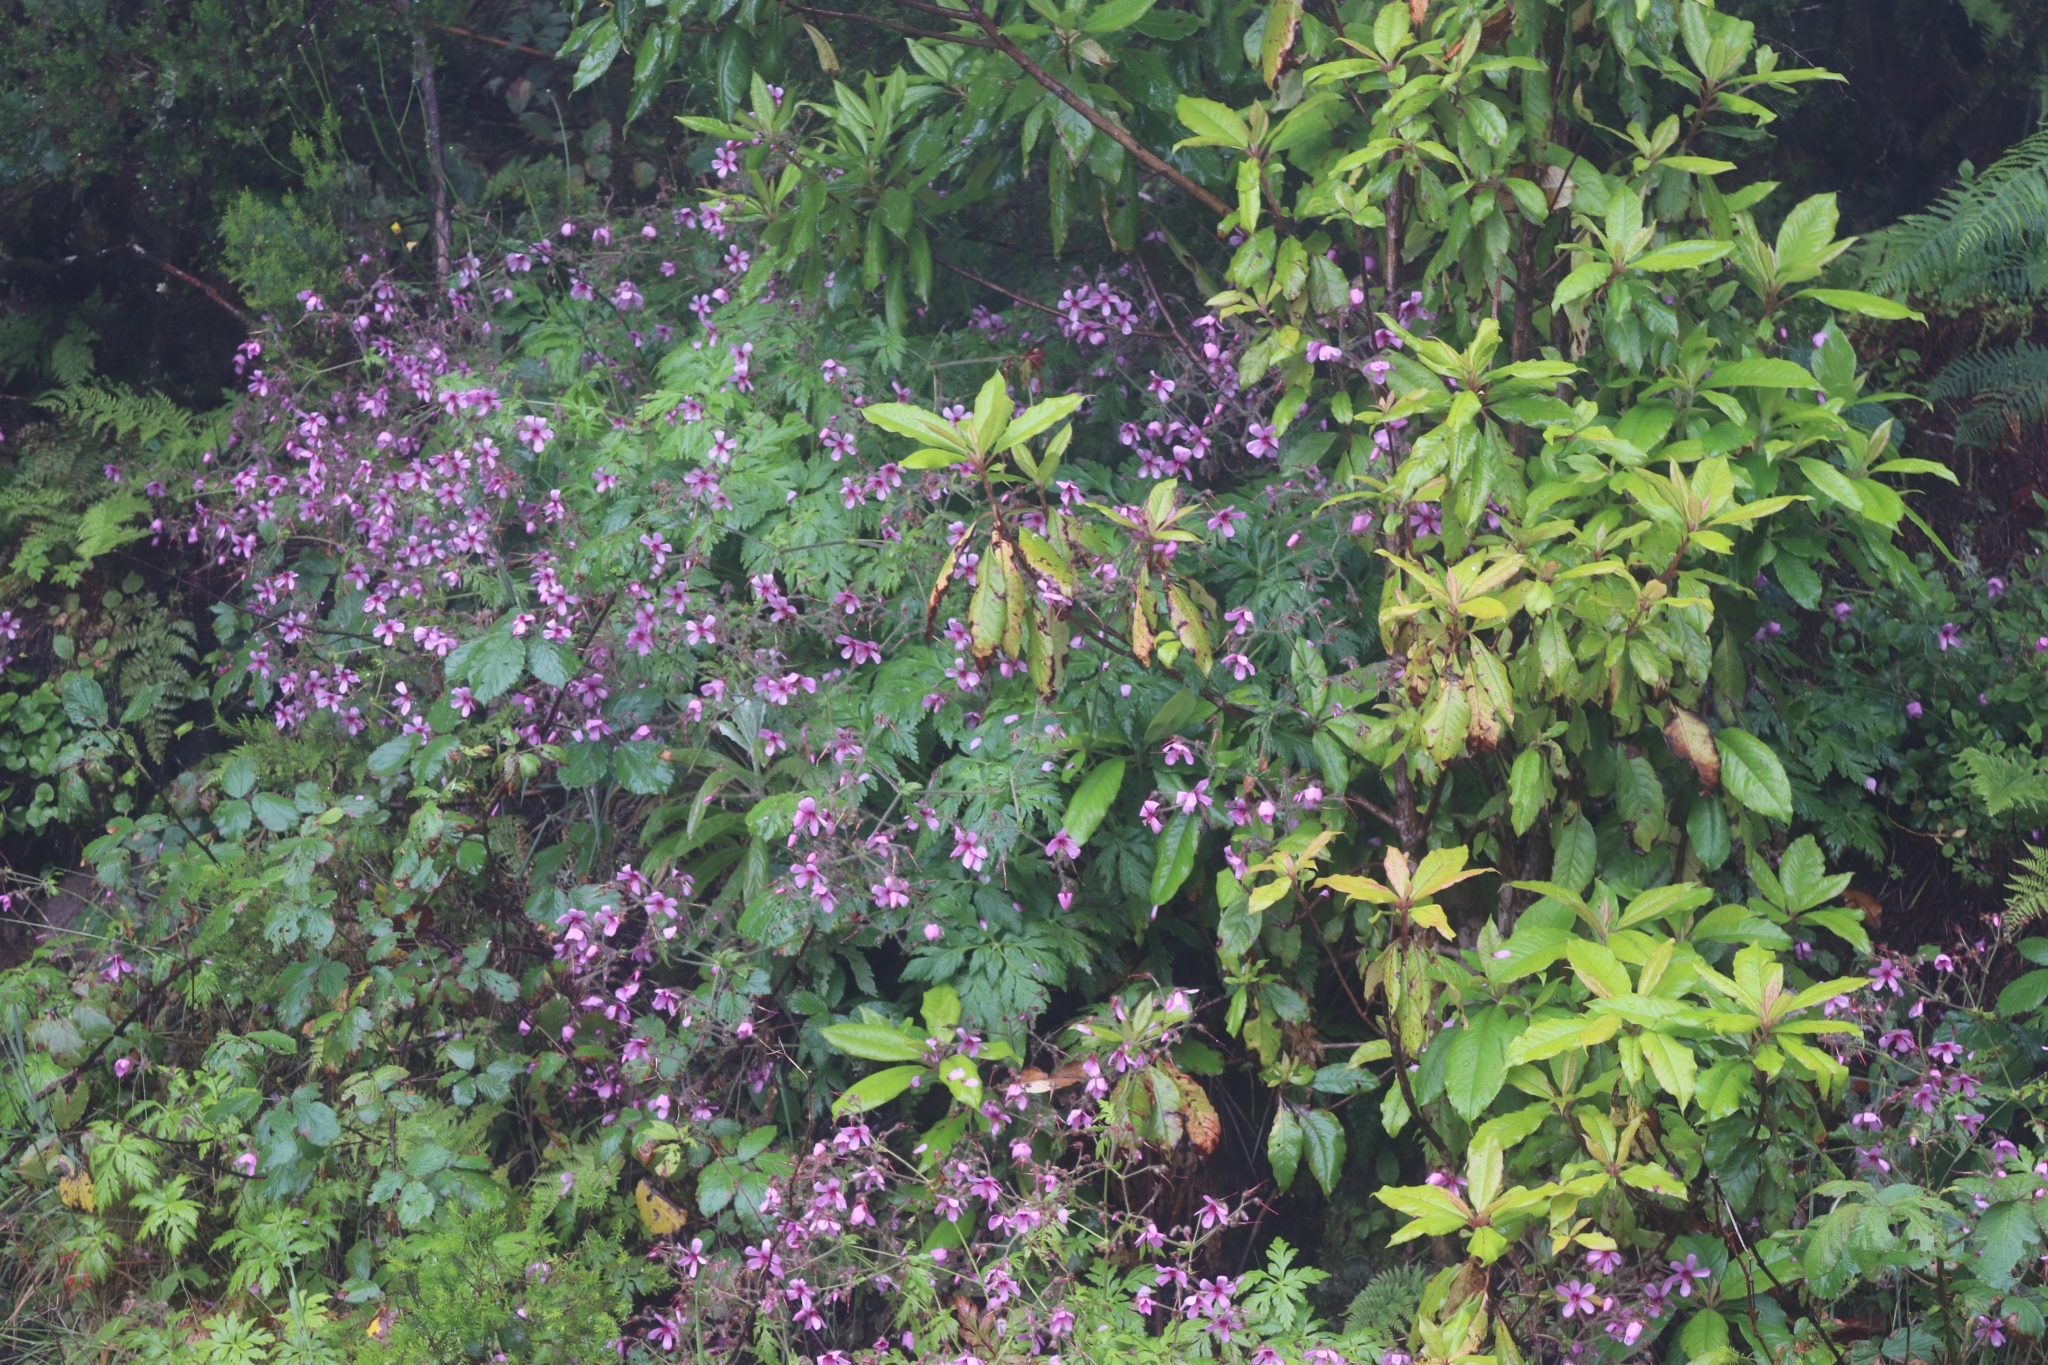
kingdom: Plantae
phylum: Tracheophyta
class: Magnoliopsida
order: Geraniales
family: Geraniaceae
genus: Geranium
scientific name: Geranium palmatum
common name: Canary island geranium
